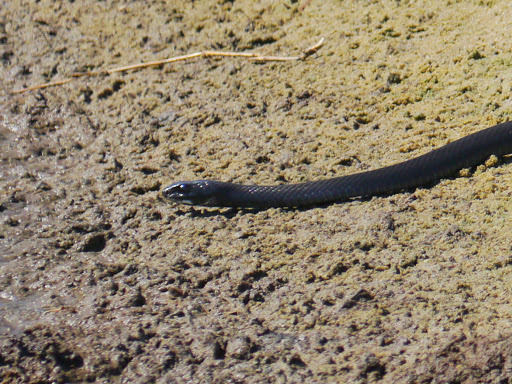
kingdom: Animalia
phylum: Chordata
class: Squamata
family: Colubridae
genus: Coluber
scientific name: Coluber constrictor
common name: Eastern racer
